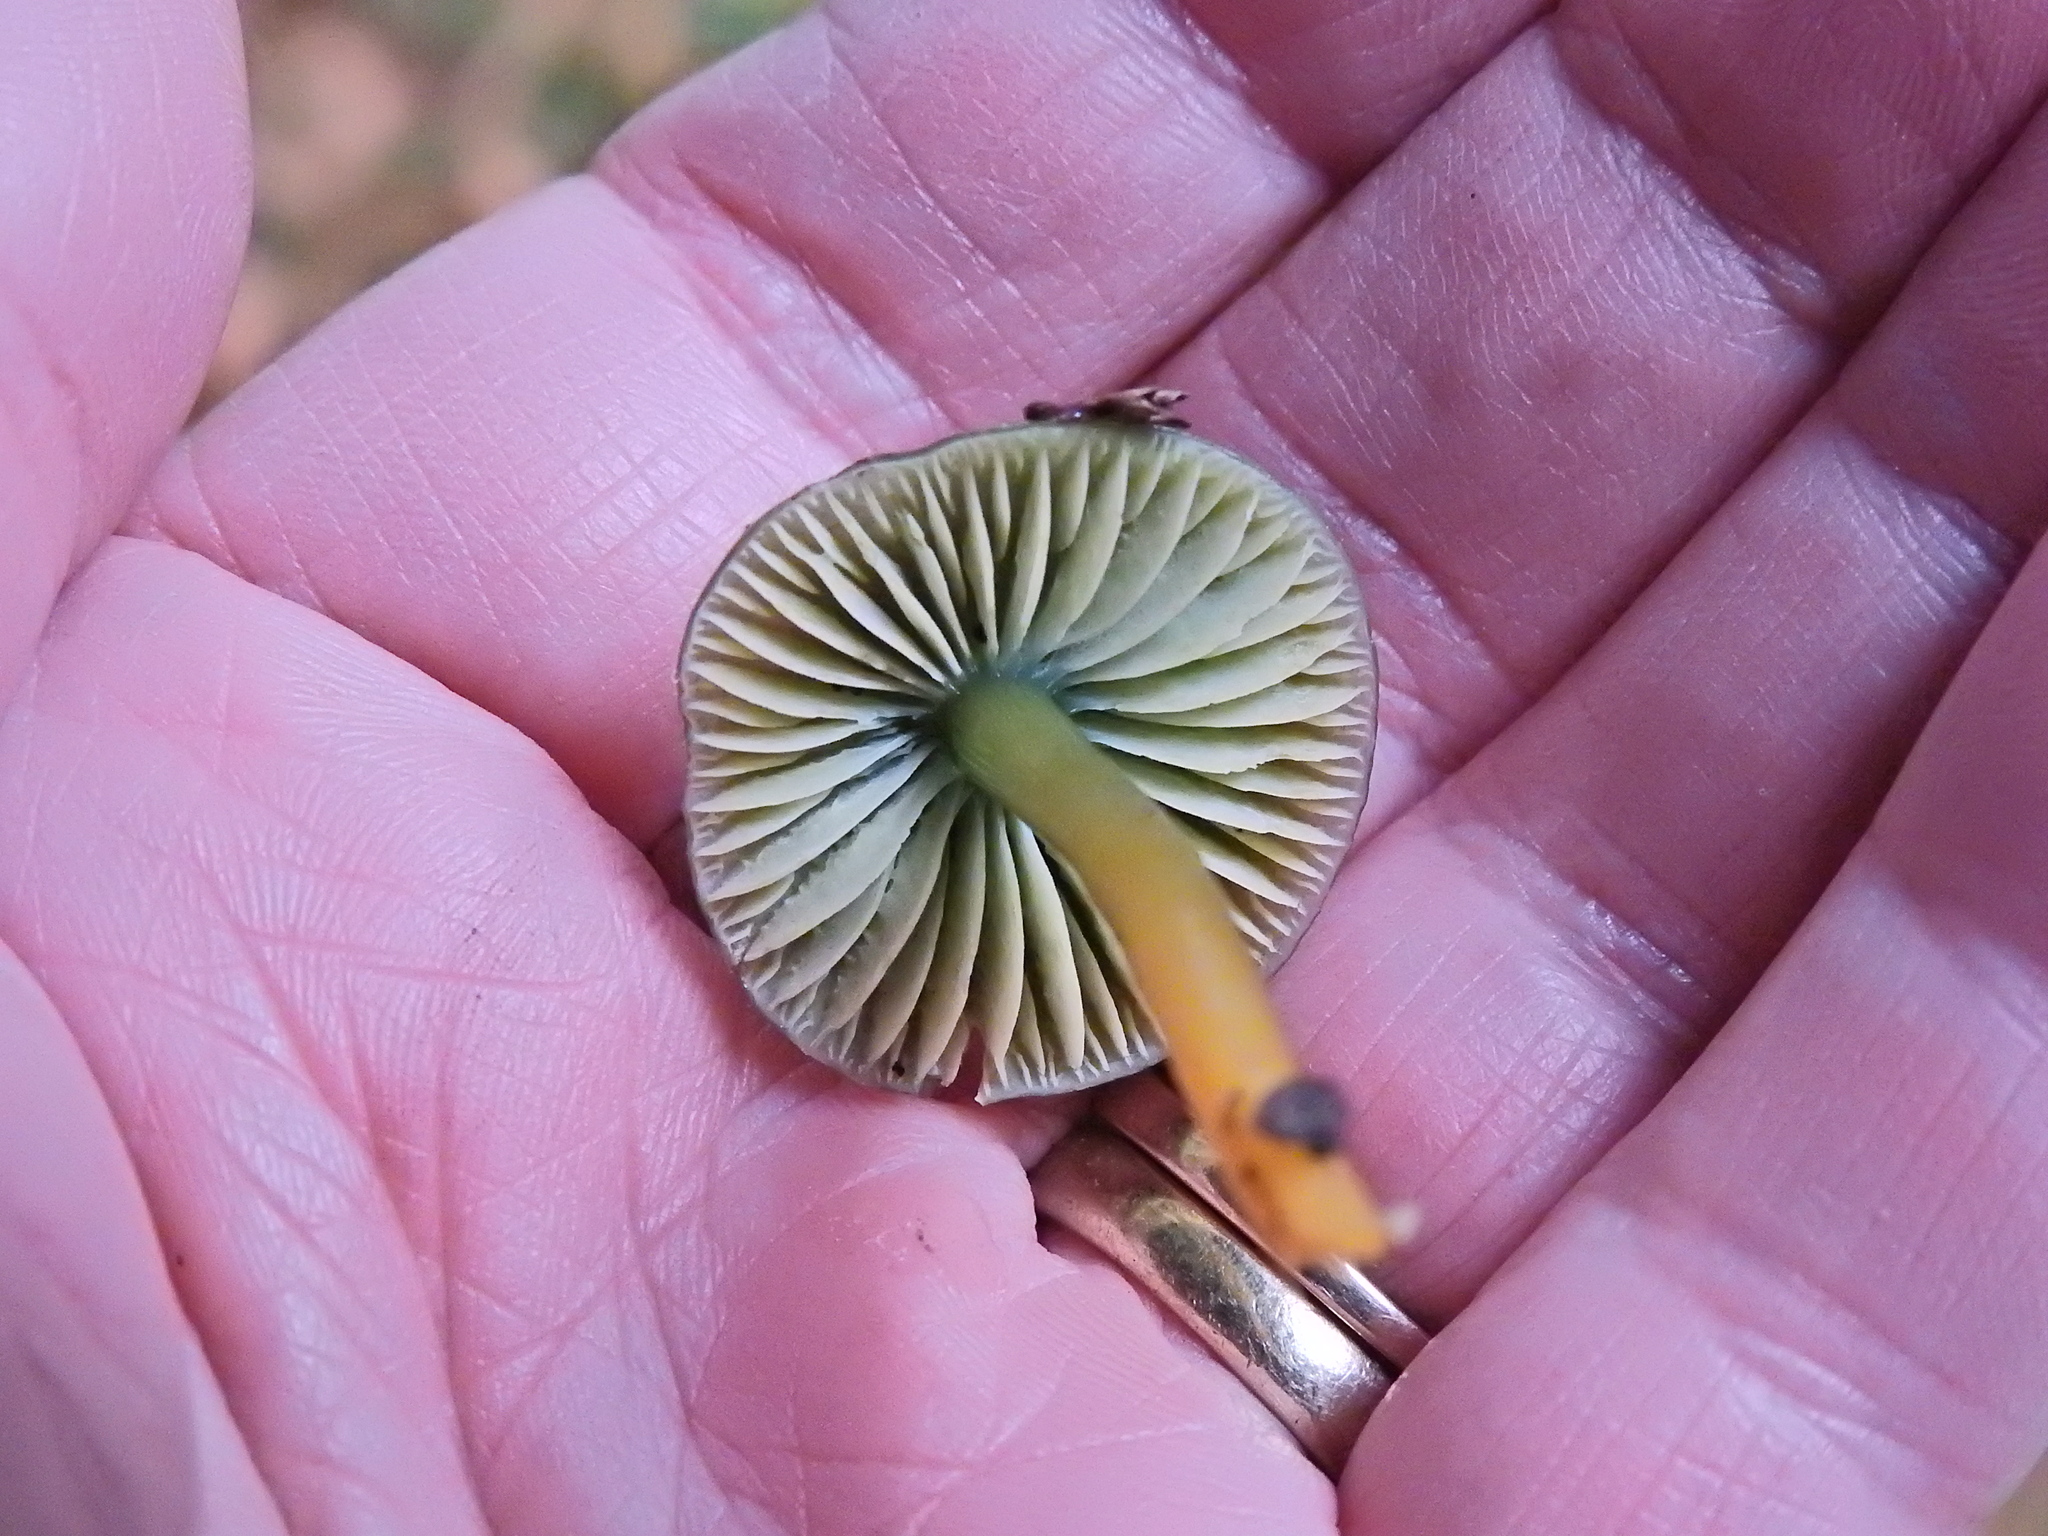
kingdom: Fungi
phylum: Basidiomycota
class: Agaricomycetes
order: Agaricales
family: Hygrophoraceae
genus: Gliophorus
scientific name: Gliophorus psittacinus
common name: Parrot wax-cap
